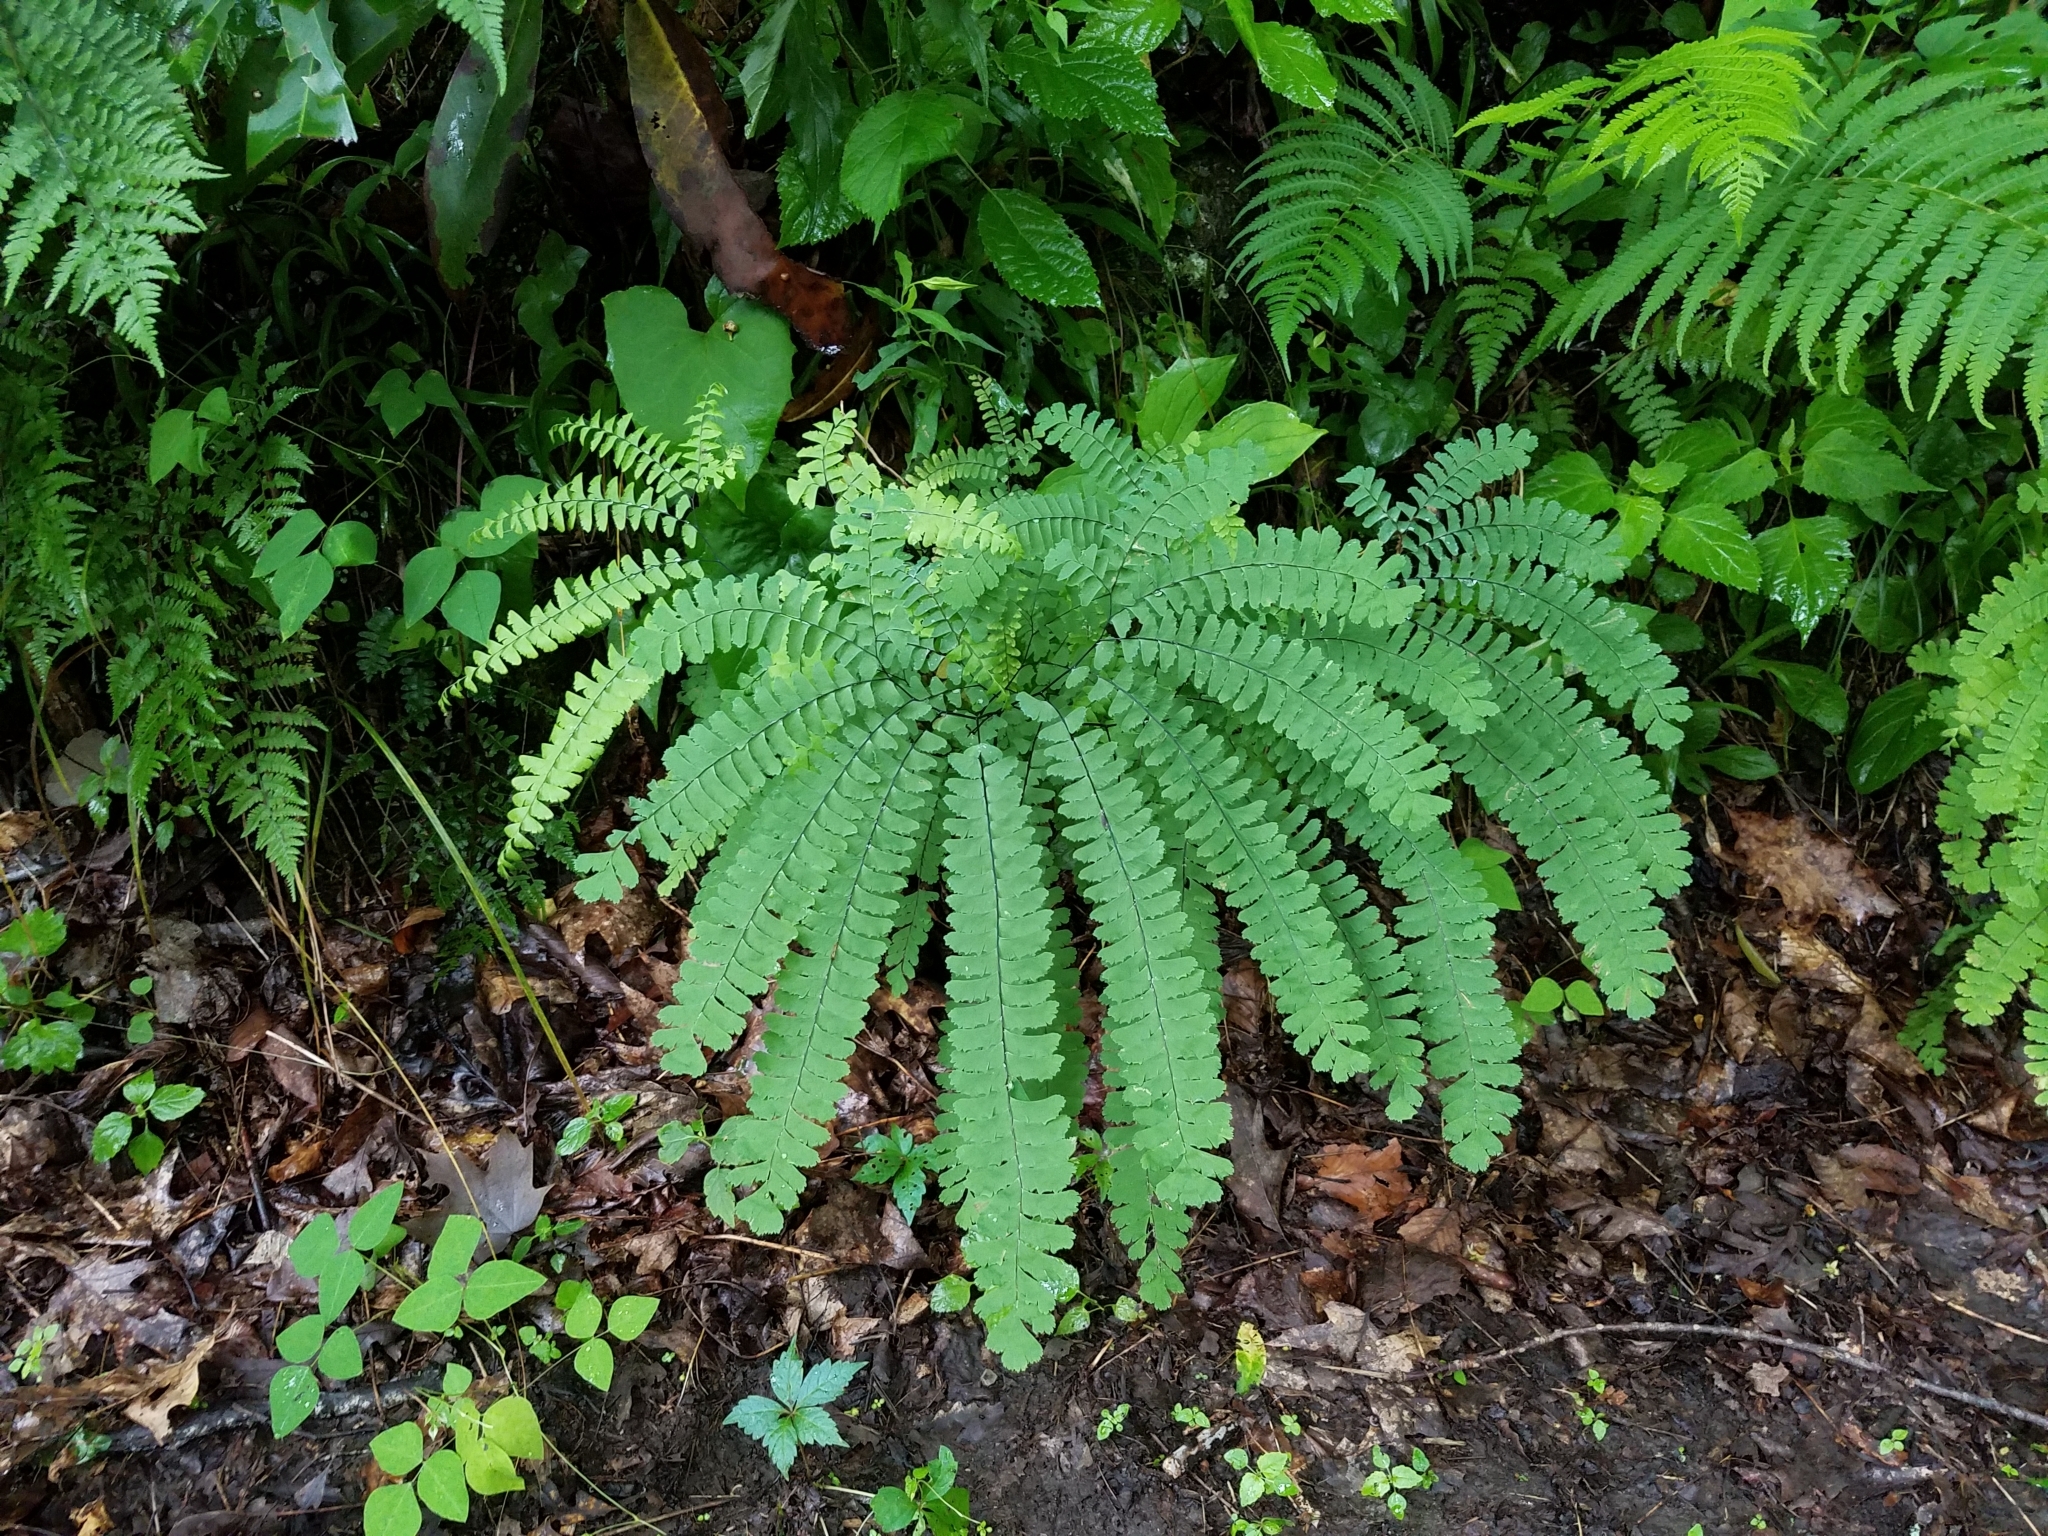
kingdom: Plantae
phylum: Tracheophyta
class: Polypodiopsida
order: Polypodiales
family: Pteridaceae
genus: Adiantum
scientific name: Adiantum pedatum
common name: Five-finger fern
